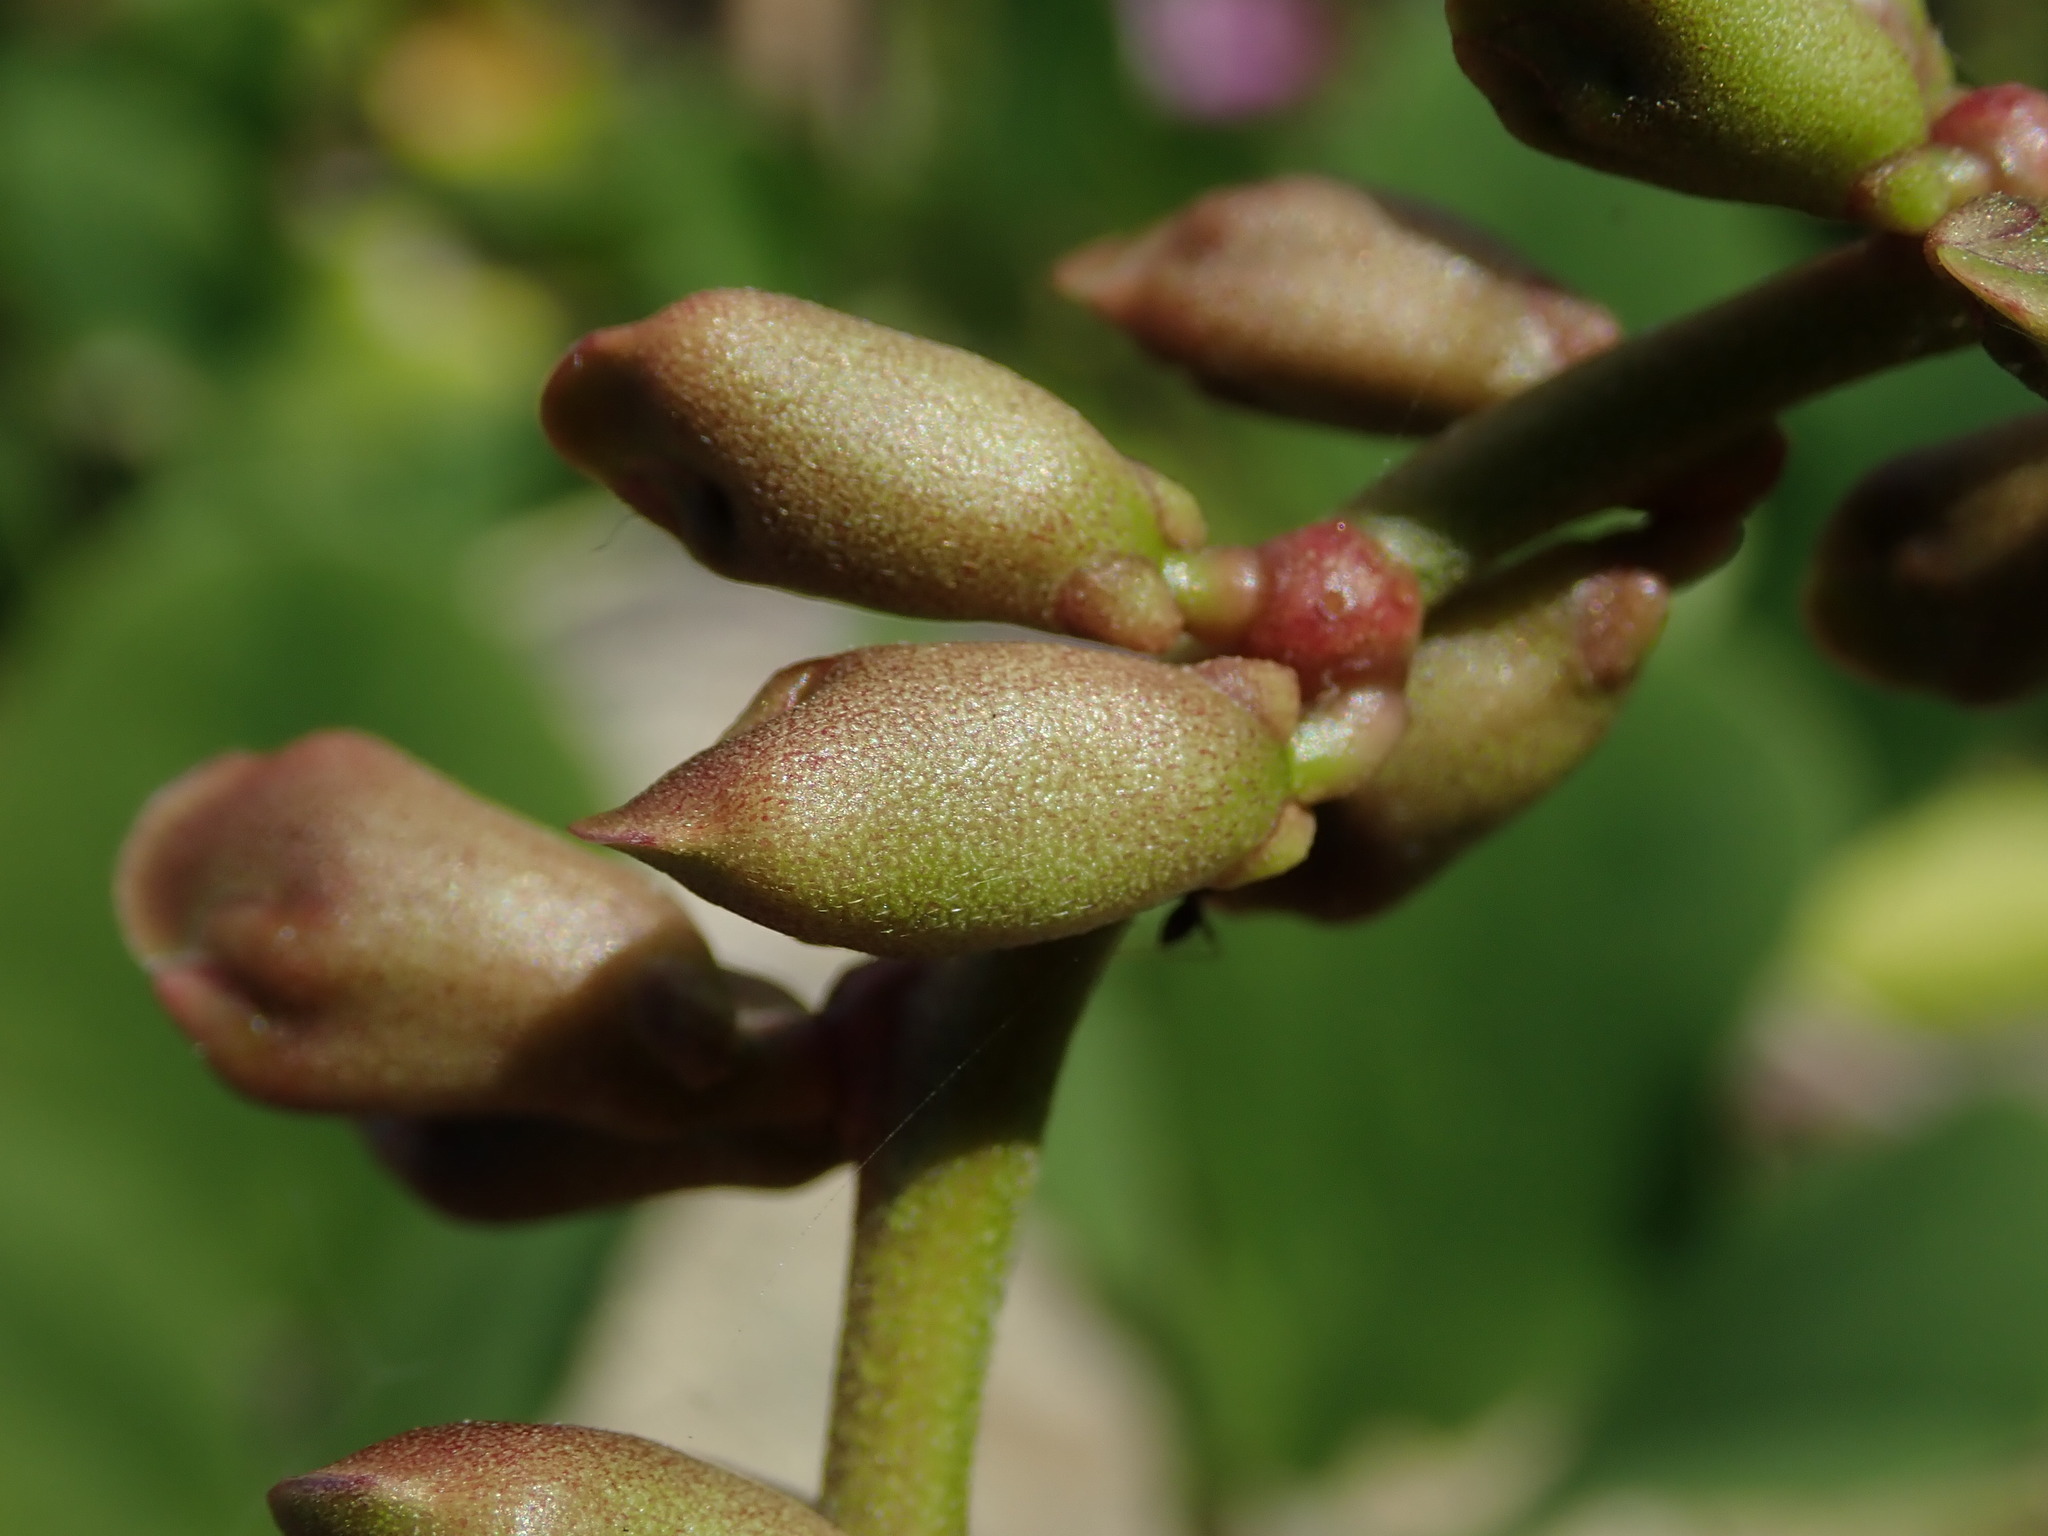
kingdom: Plantae
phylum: Tracheophyta
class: Magnoliopsida
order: Fabales
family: Fabaceae
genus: Canavalia
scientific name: Canavalia rosea
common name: Beach-bean
